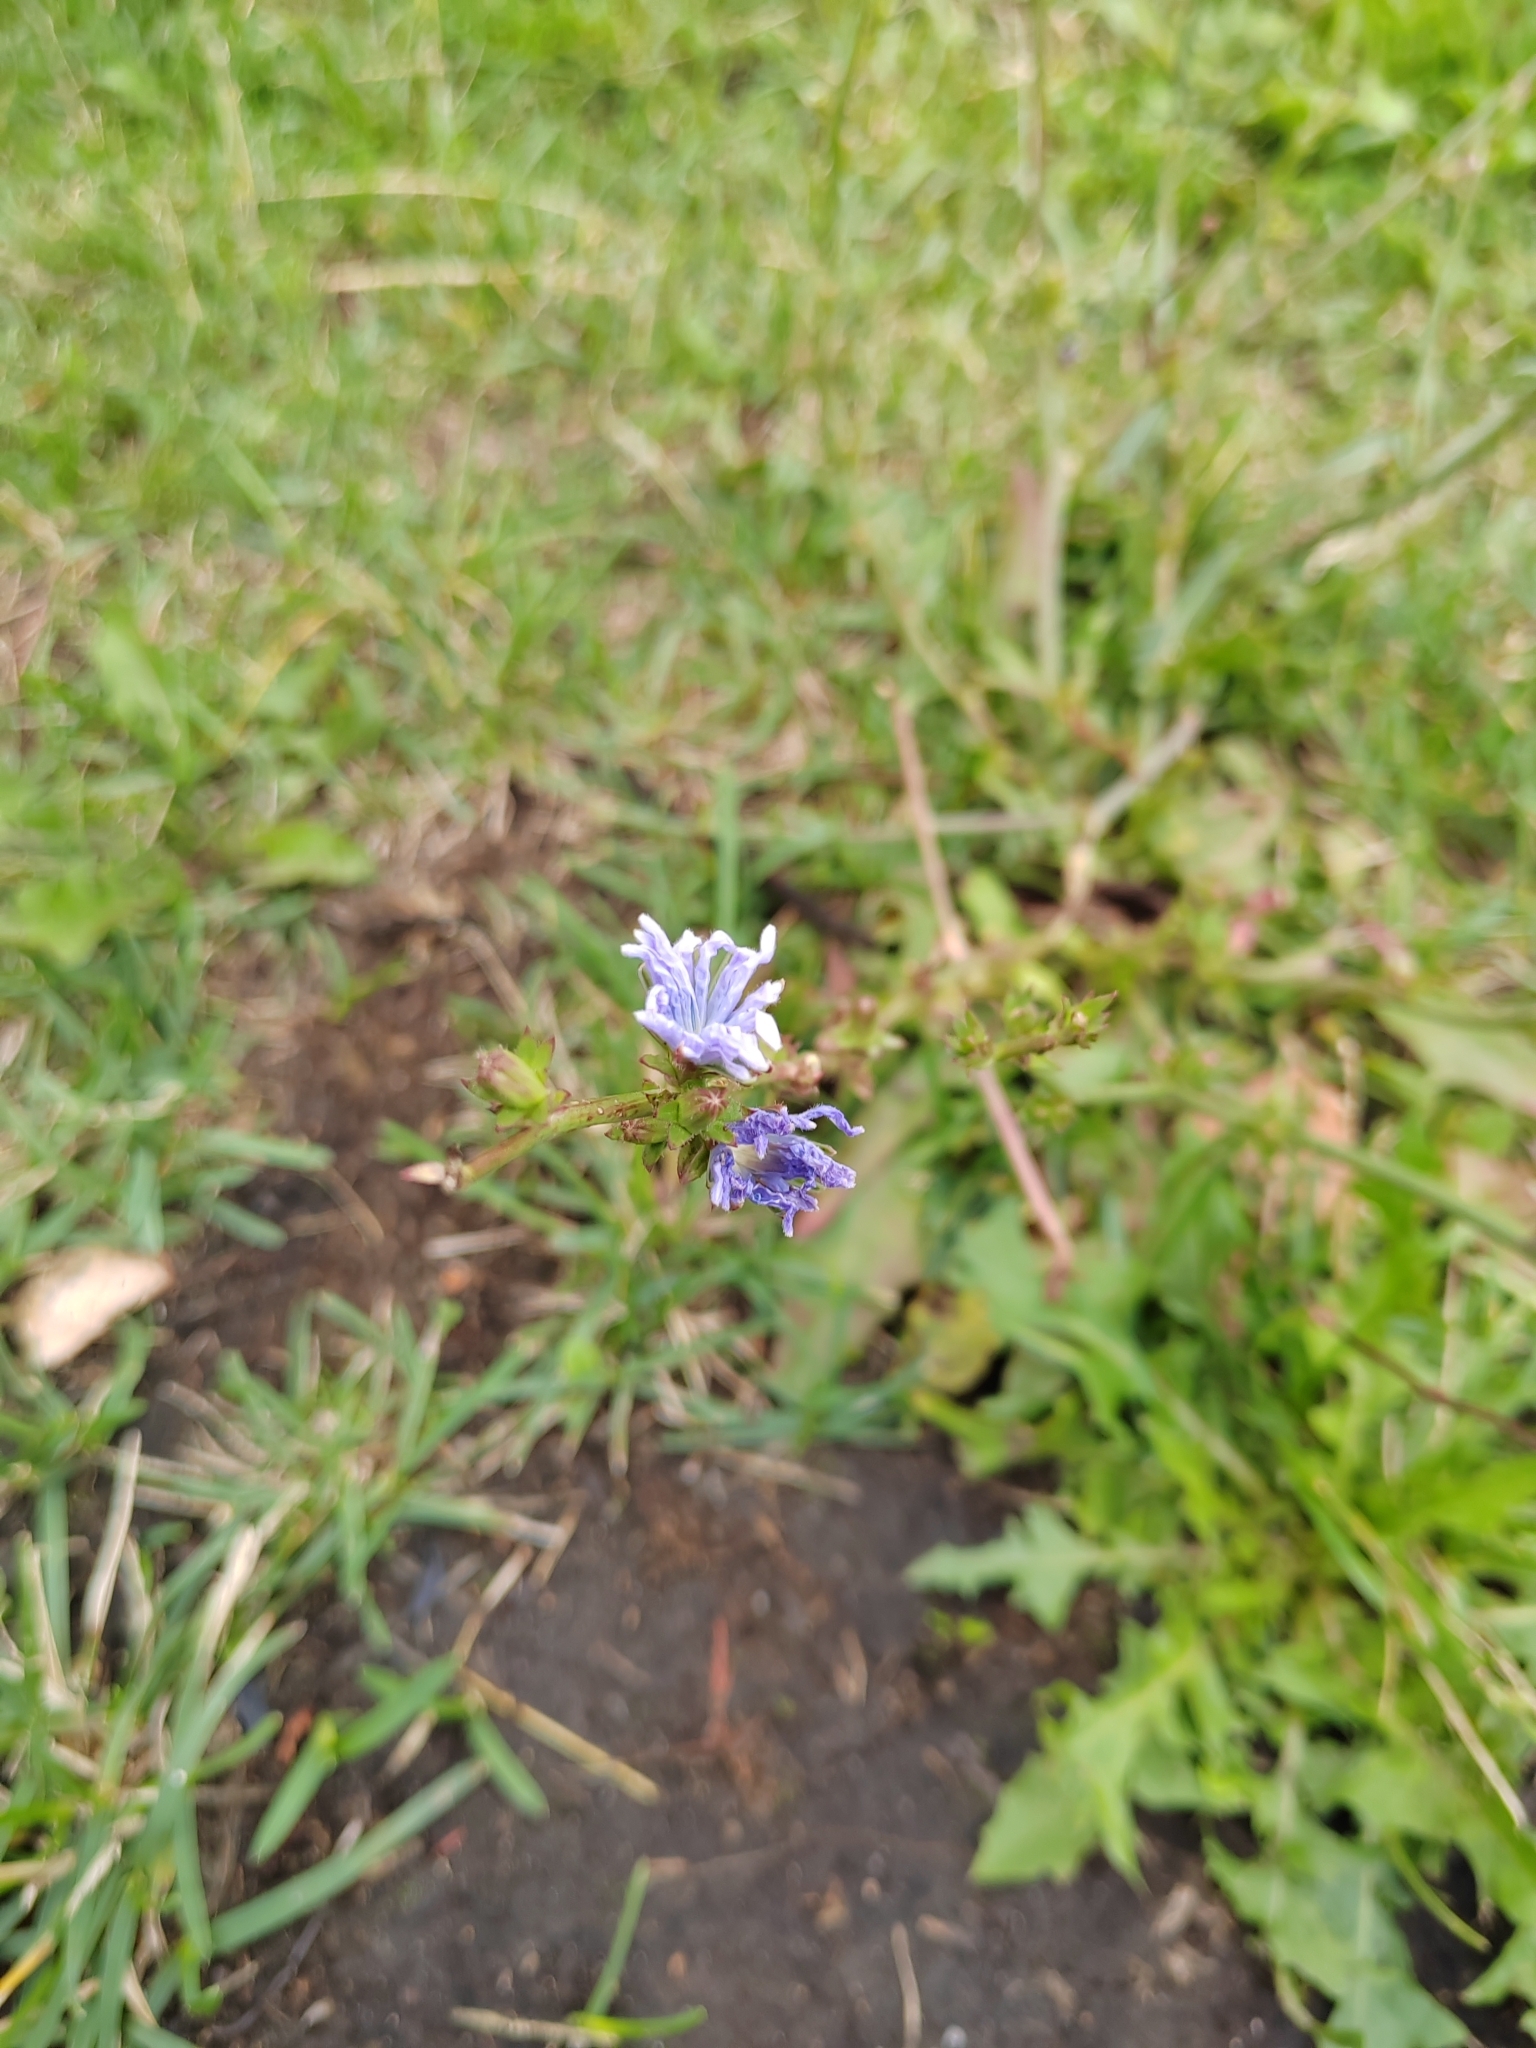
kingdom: Plantae
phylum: Tracheophyta
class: Magnoliopsida
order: Asterales
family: Asteraceae
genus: Cichorium
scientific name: Cichorium intybus
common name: Chicory
